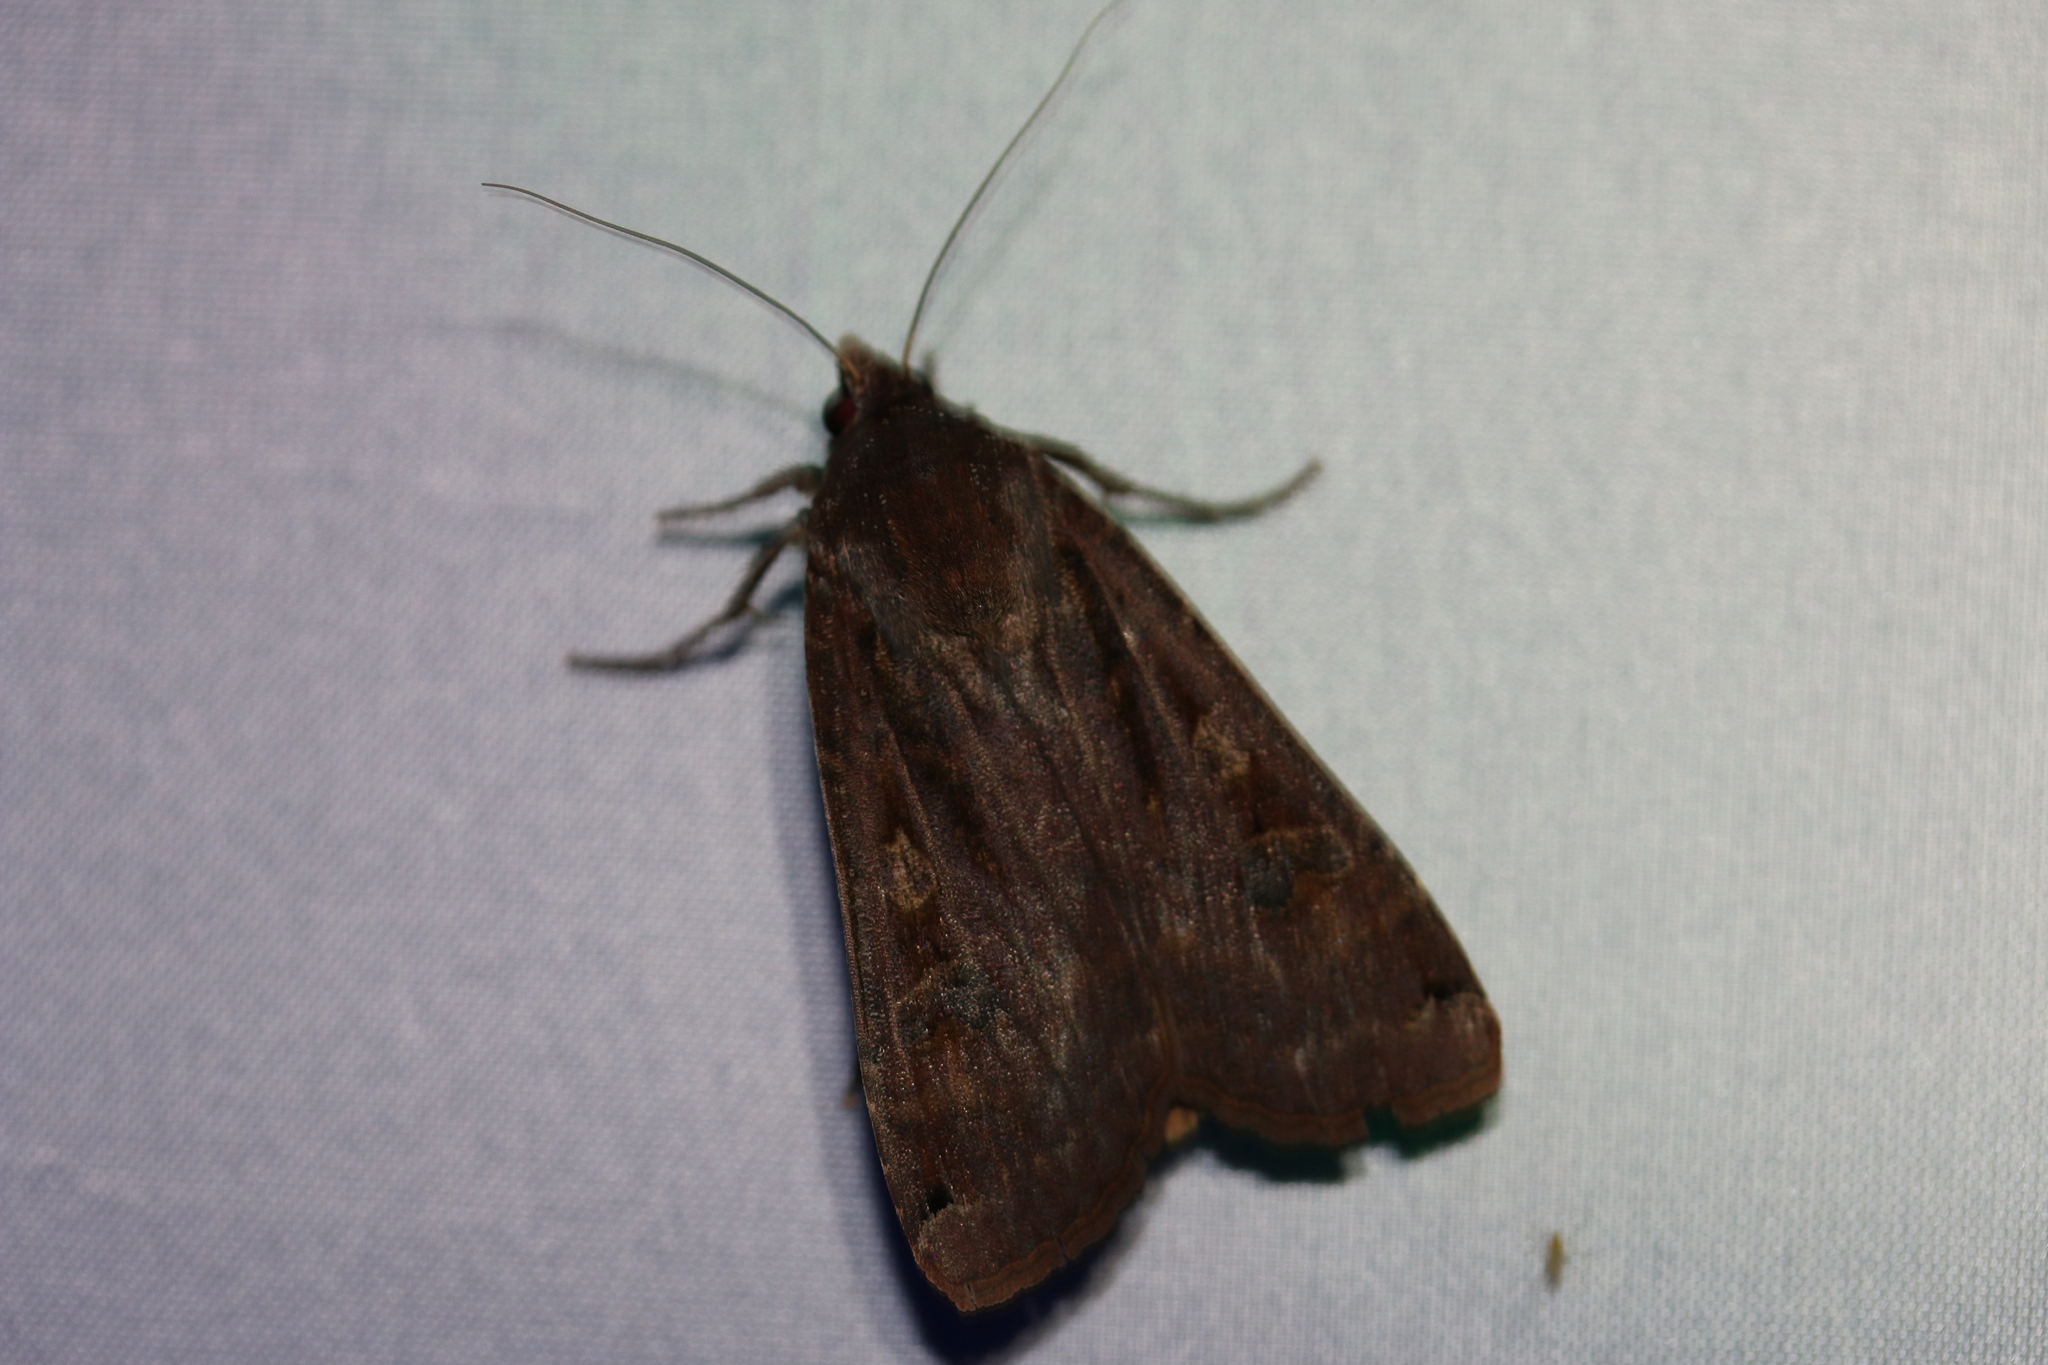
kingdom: Animalia
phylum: Arthropoda
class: Insecta
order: Lepidoptera
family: Noctuidae
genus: Noctua
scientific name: Noctua pronuba
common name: Large yellow underwing
